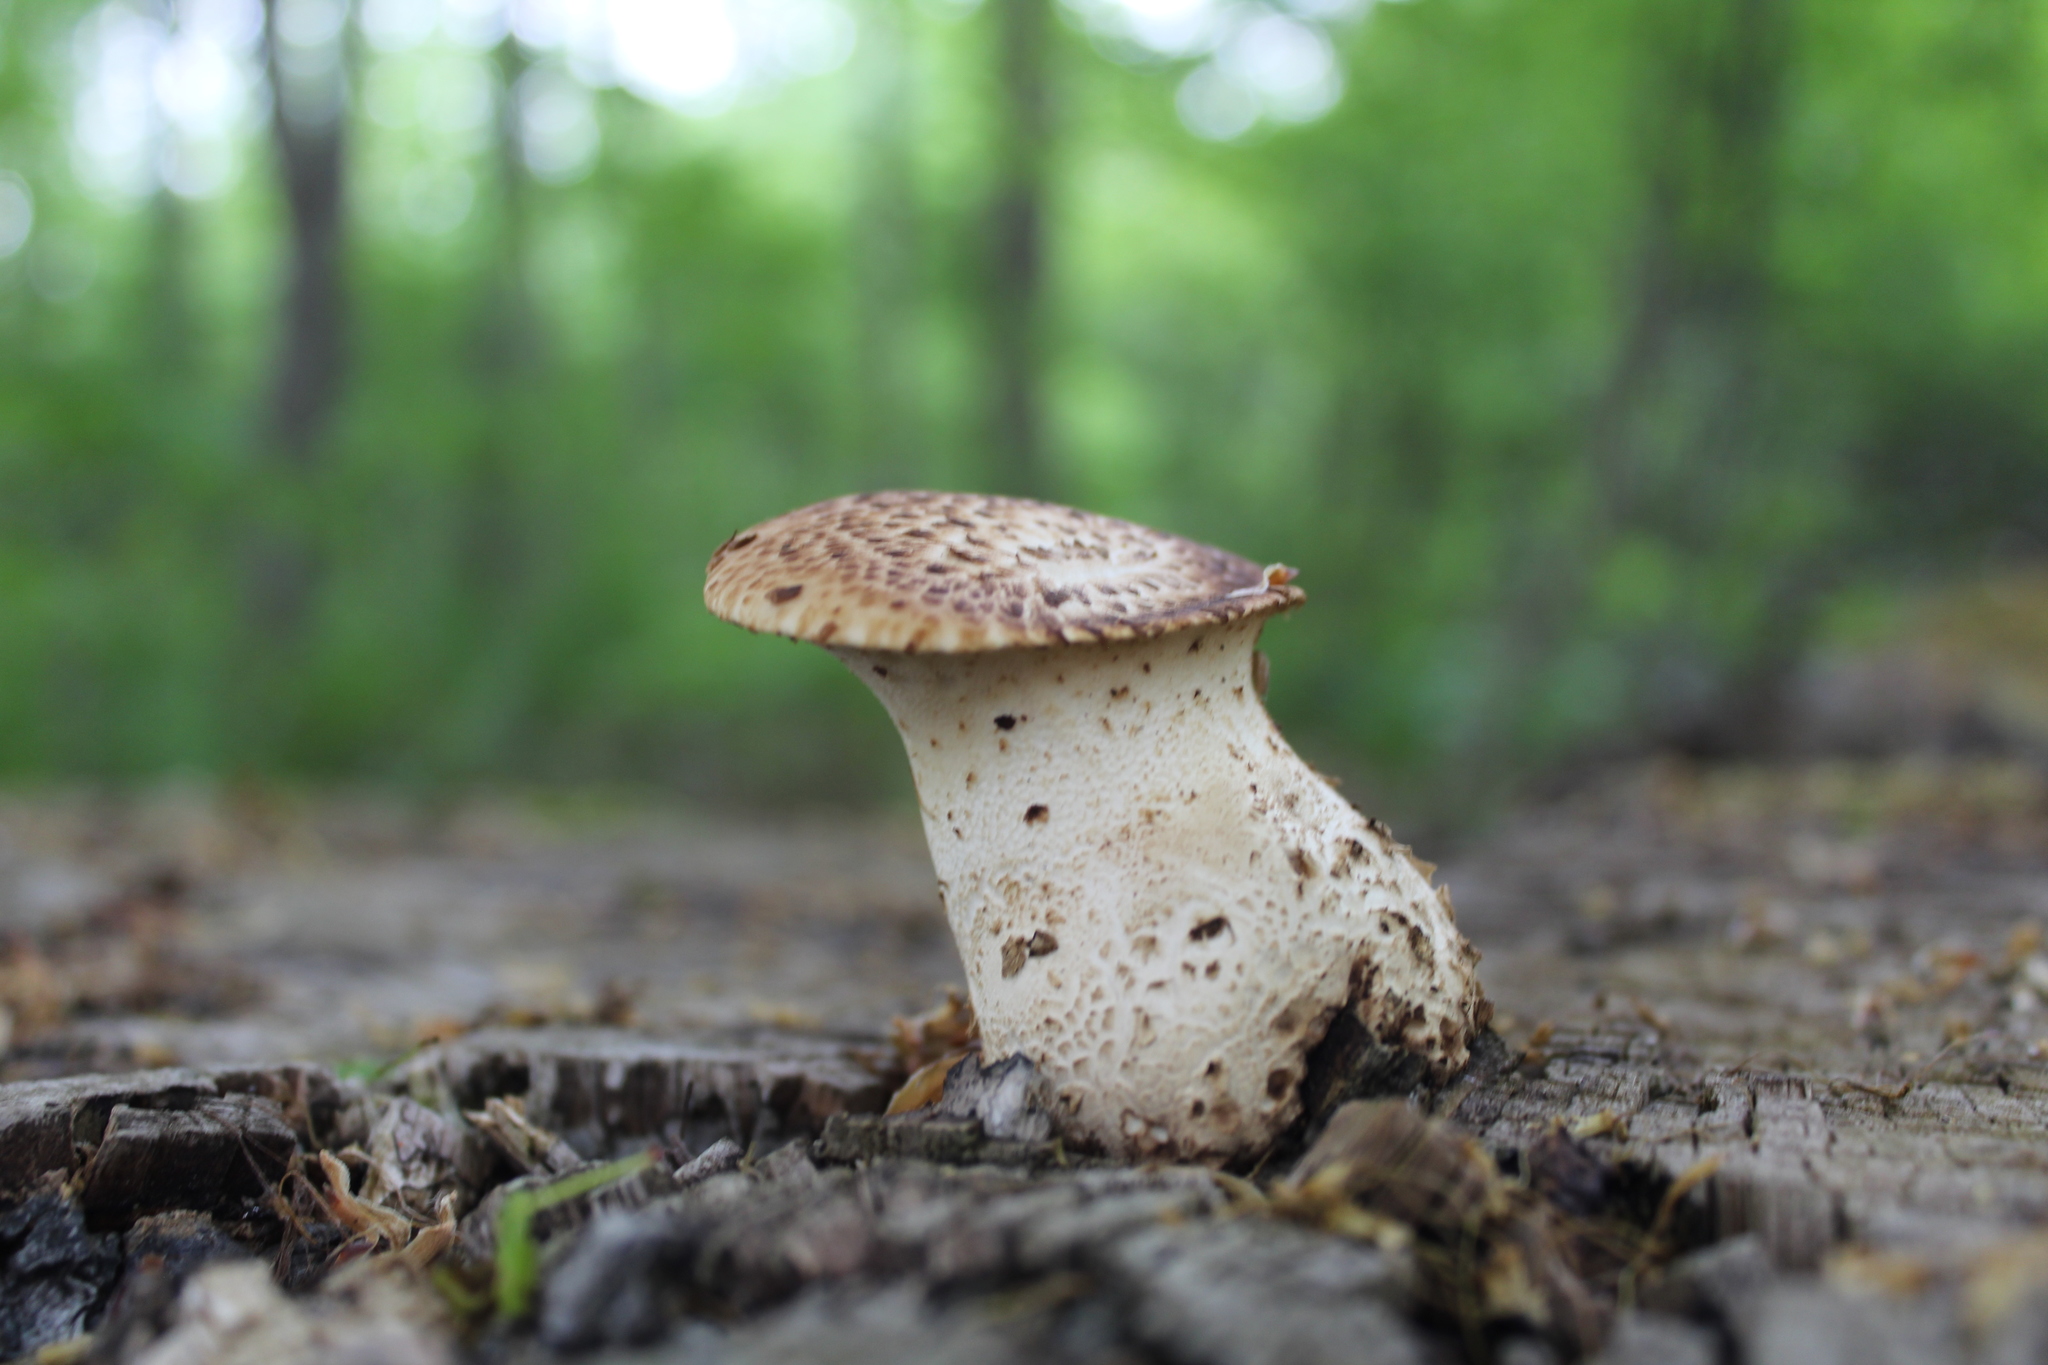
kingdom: Fungi
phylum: Basidiomycota
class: Agaricomycetes
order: Polyporales
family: Polyporaceae
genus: Cerioporus
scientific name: Cerioporus squamosus
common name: Dryad's saddle
